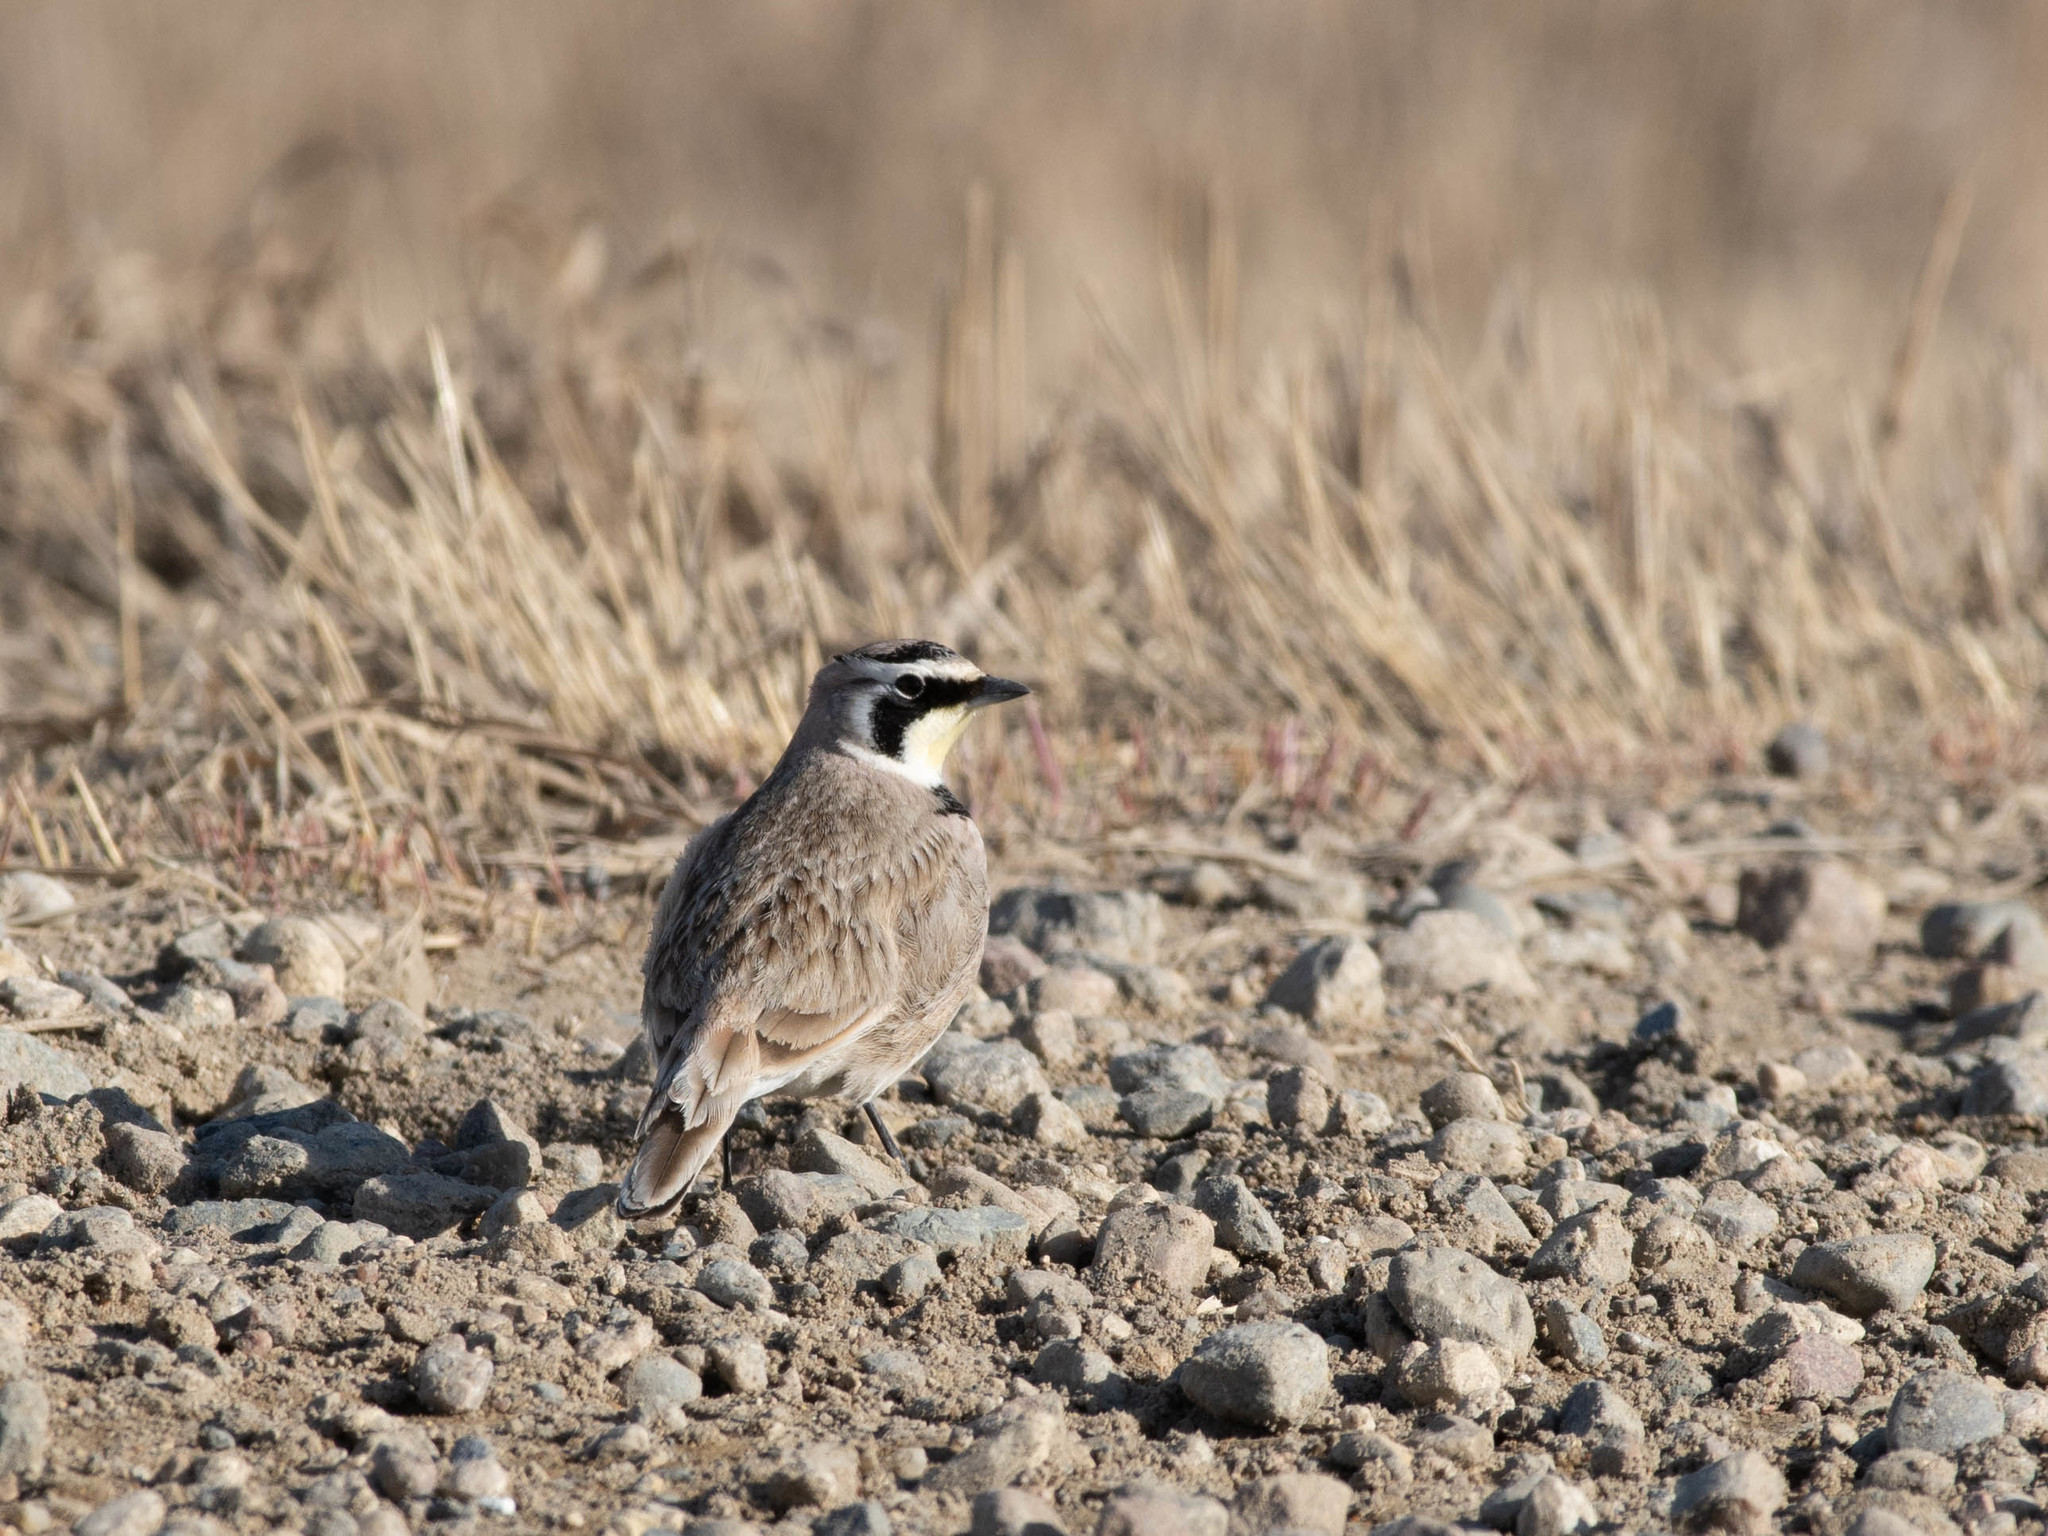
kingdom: Animalia
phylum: Chordata
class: Aves
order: Passeriformes
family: Alaudidae
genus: Eremophila
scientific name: Eremophila alpestris
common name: Horned lark
